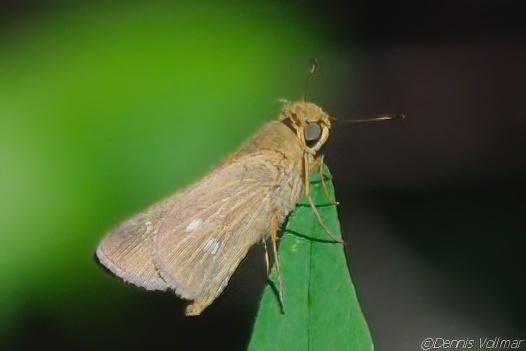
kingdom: Animalia
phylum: Arthropoda
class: Insecta
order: Lepidoptera
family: Hesperiidae
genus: Panoquina
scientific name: Panoquina panoquinoides
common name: Beach skipper
